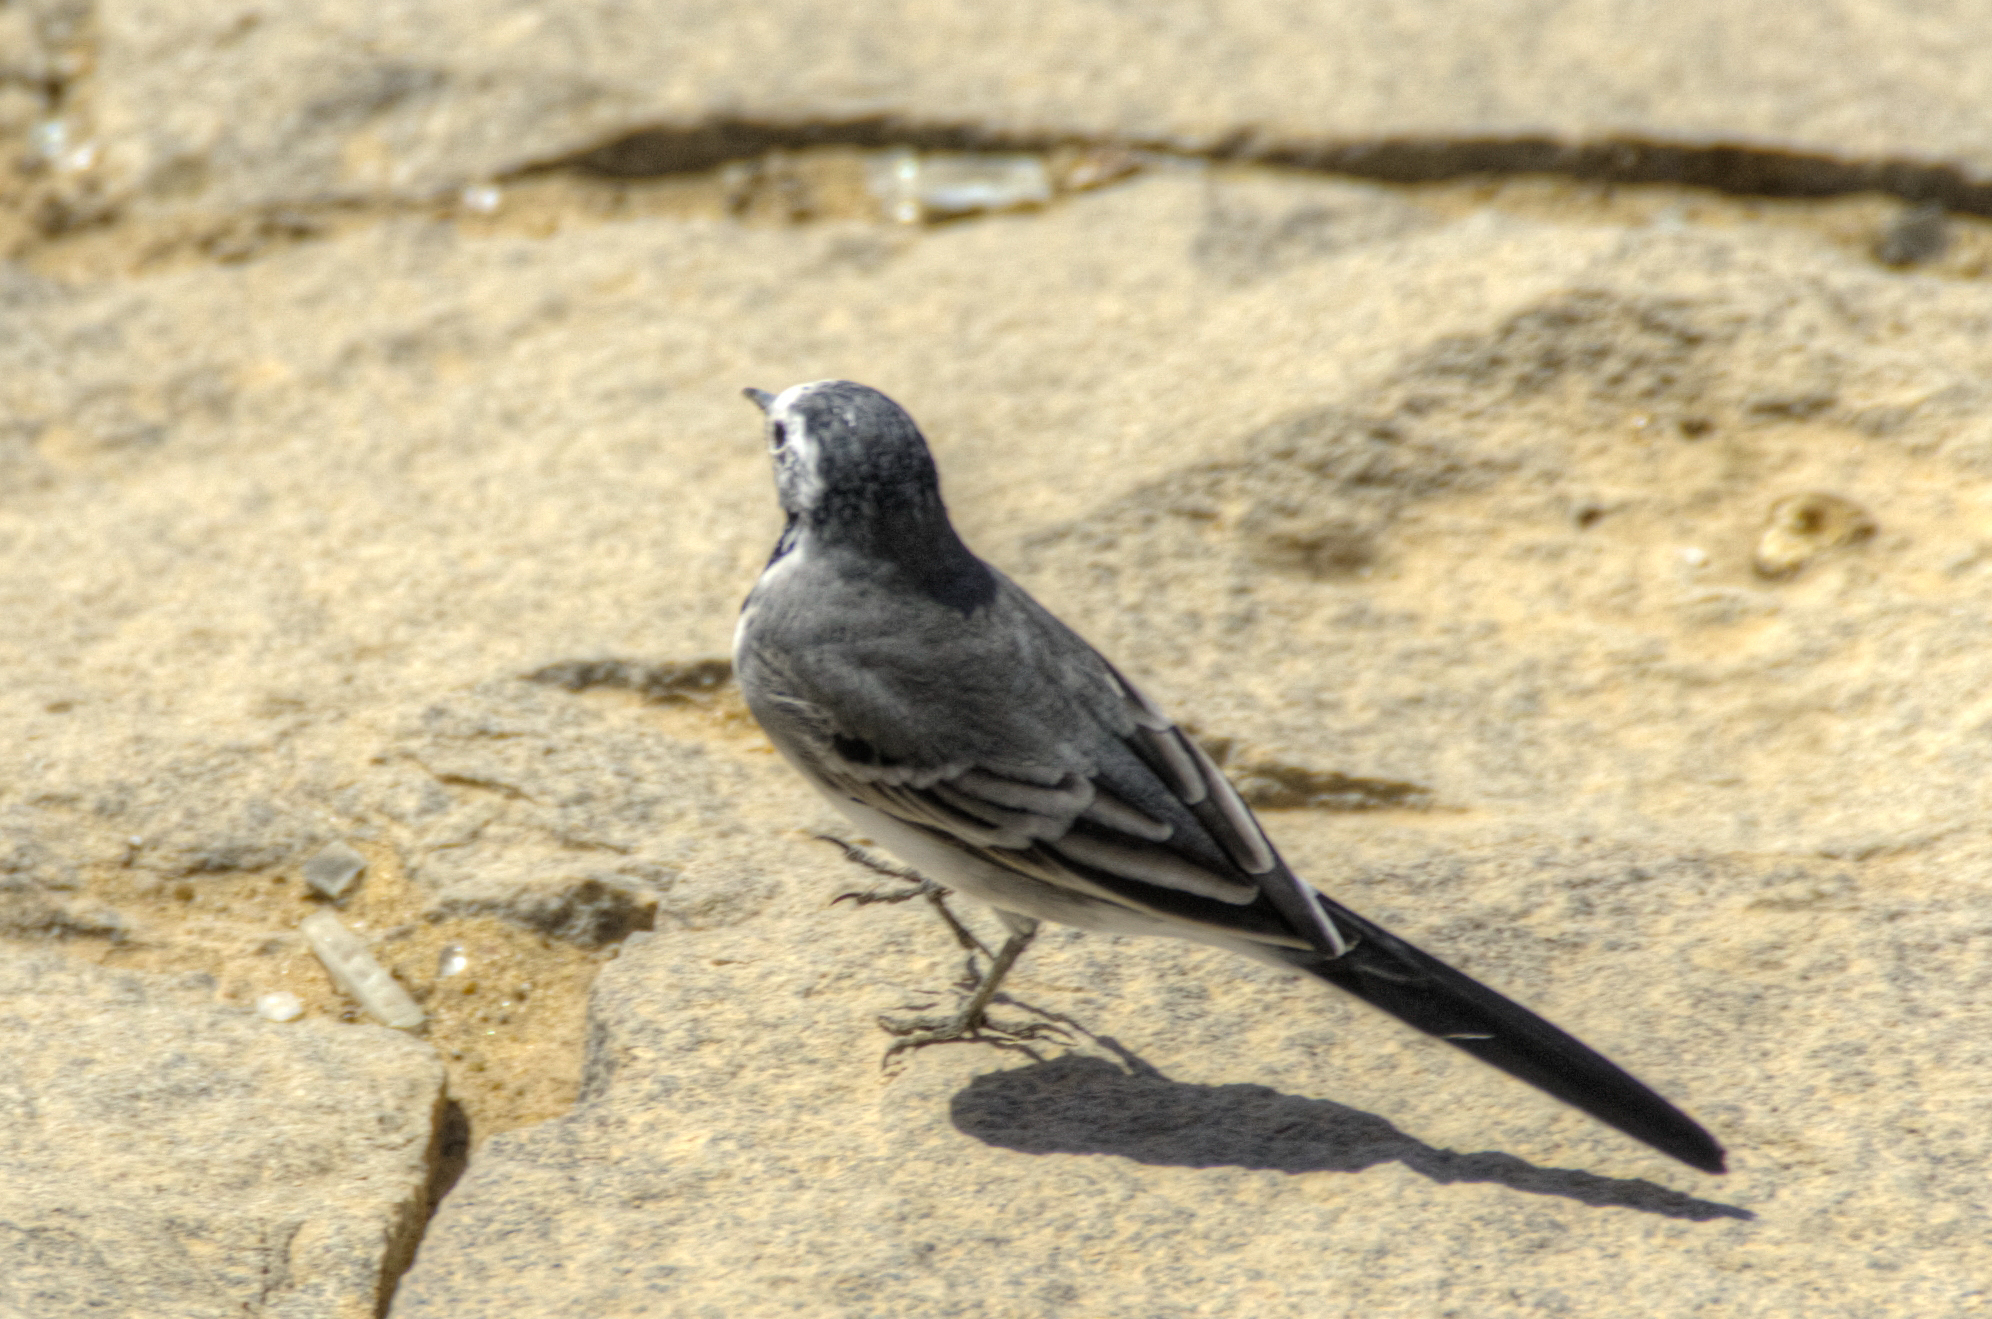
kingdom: Animalia
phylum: Chordata
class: Aves
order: Passeriformes
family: Motacillidae
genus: Motacilla
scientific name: Motacilla alba
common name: White wagtail
